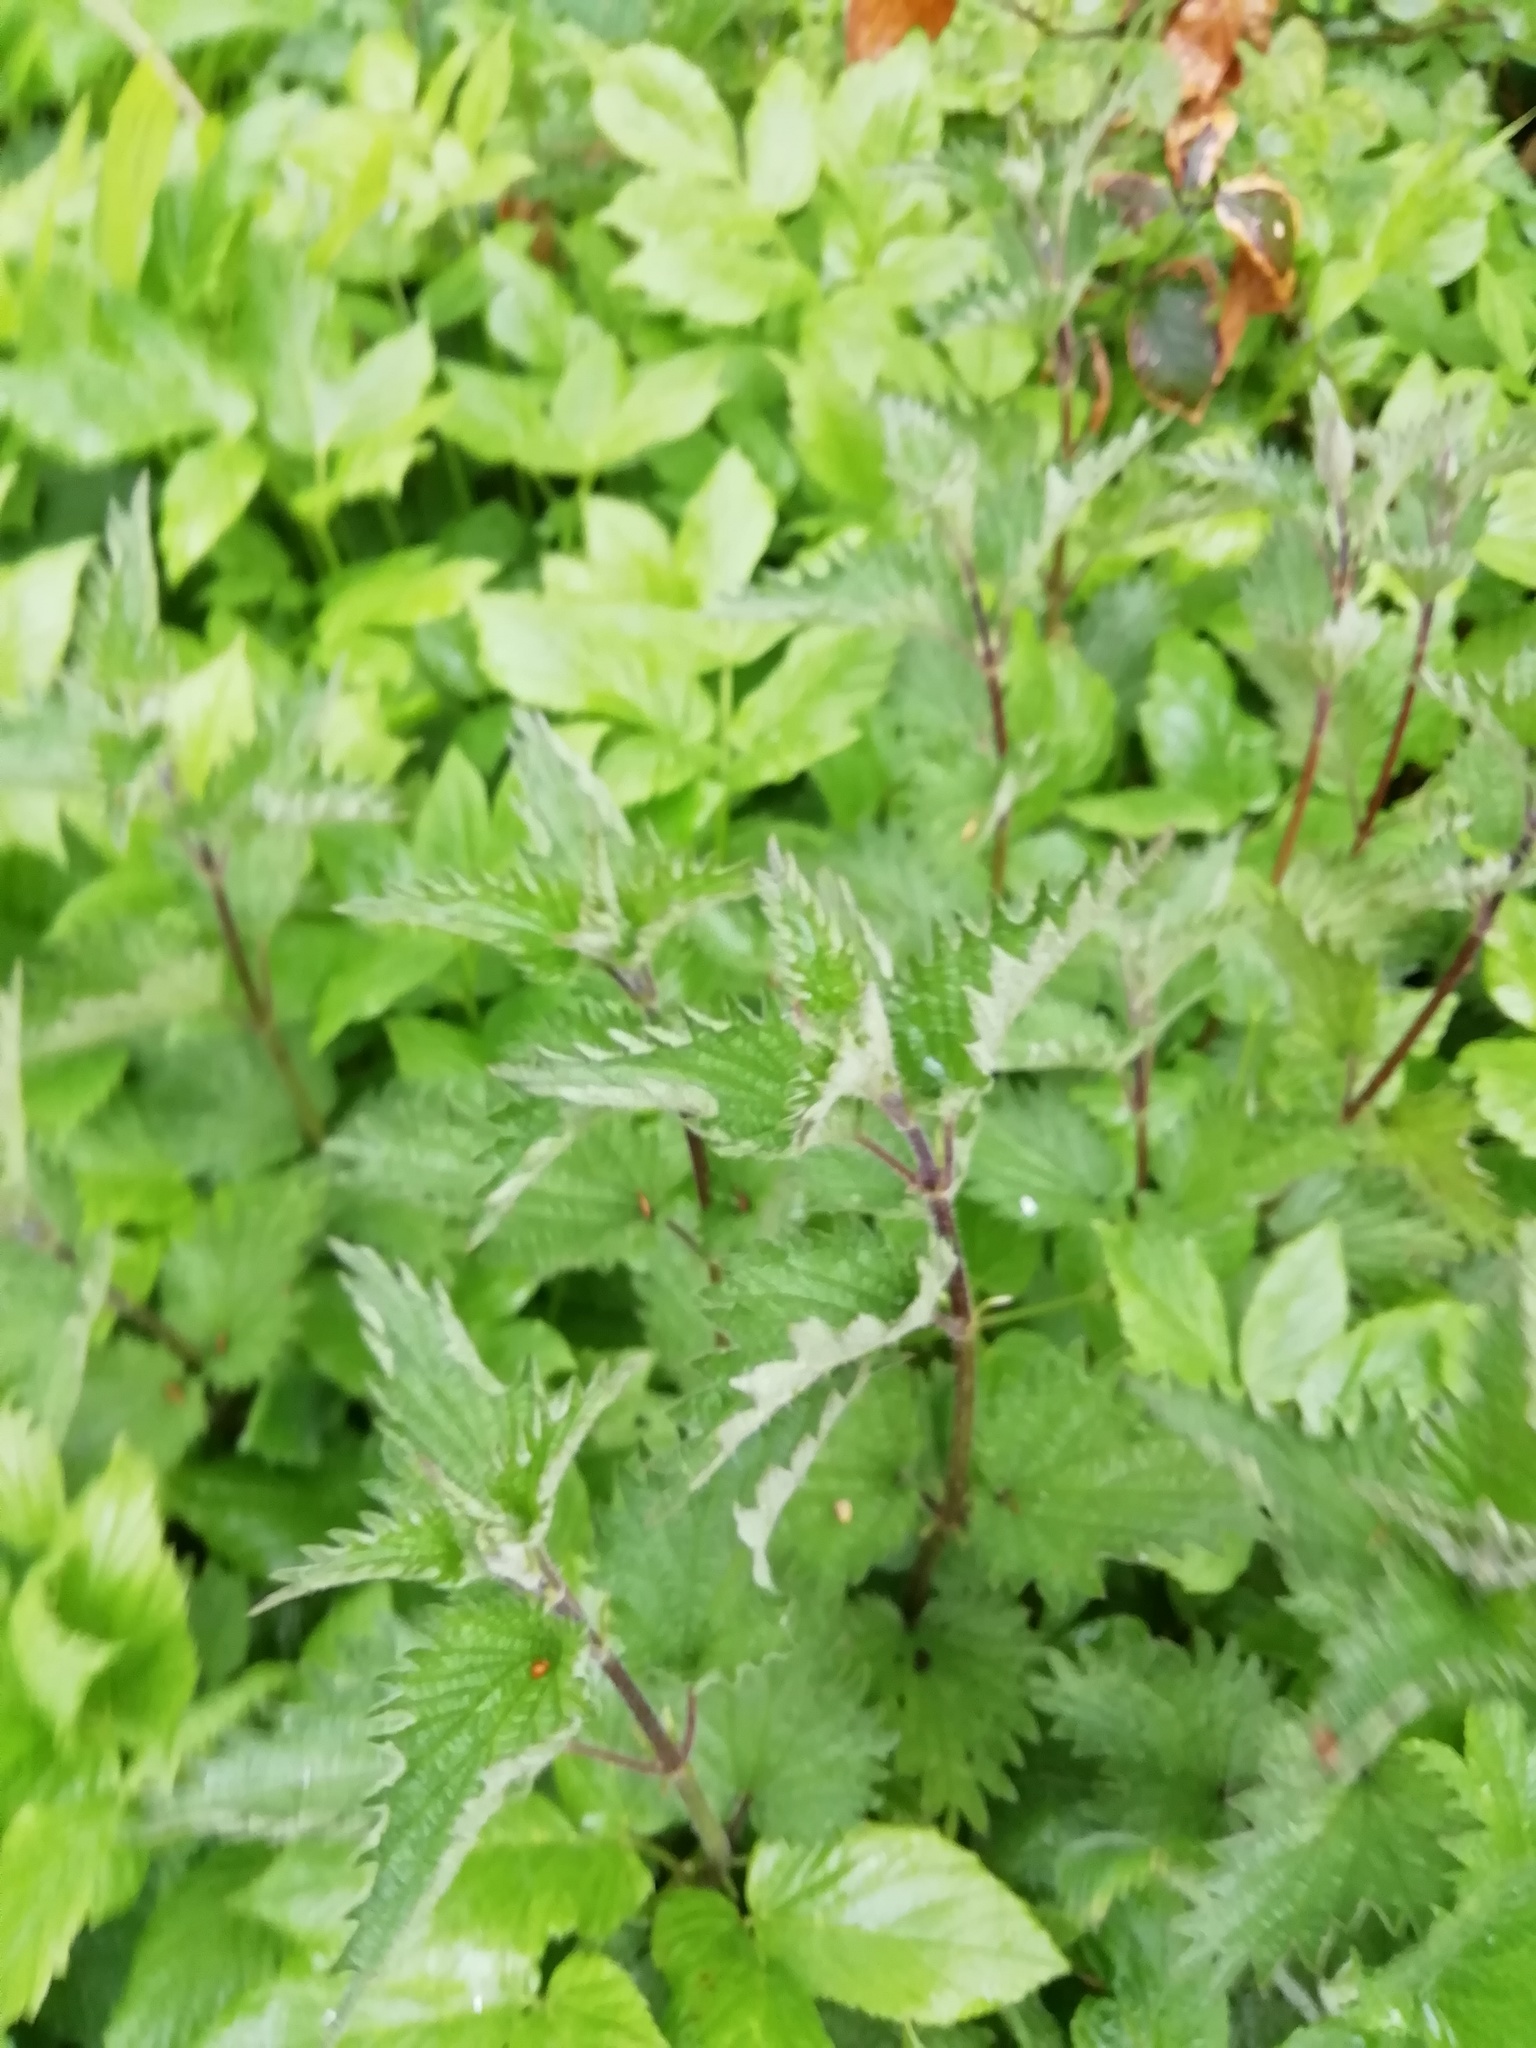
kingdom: Plantae
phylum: Tracheophyta
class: Magnoliopsida
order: Rosales
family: Urticaceae
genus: Urtica
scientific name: Urtica dioica
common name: Common nettle
